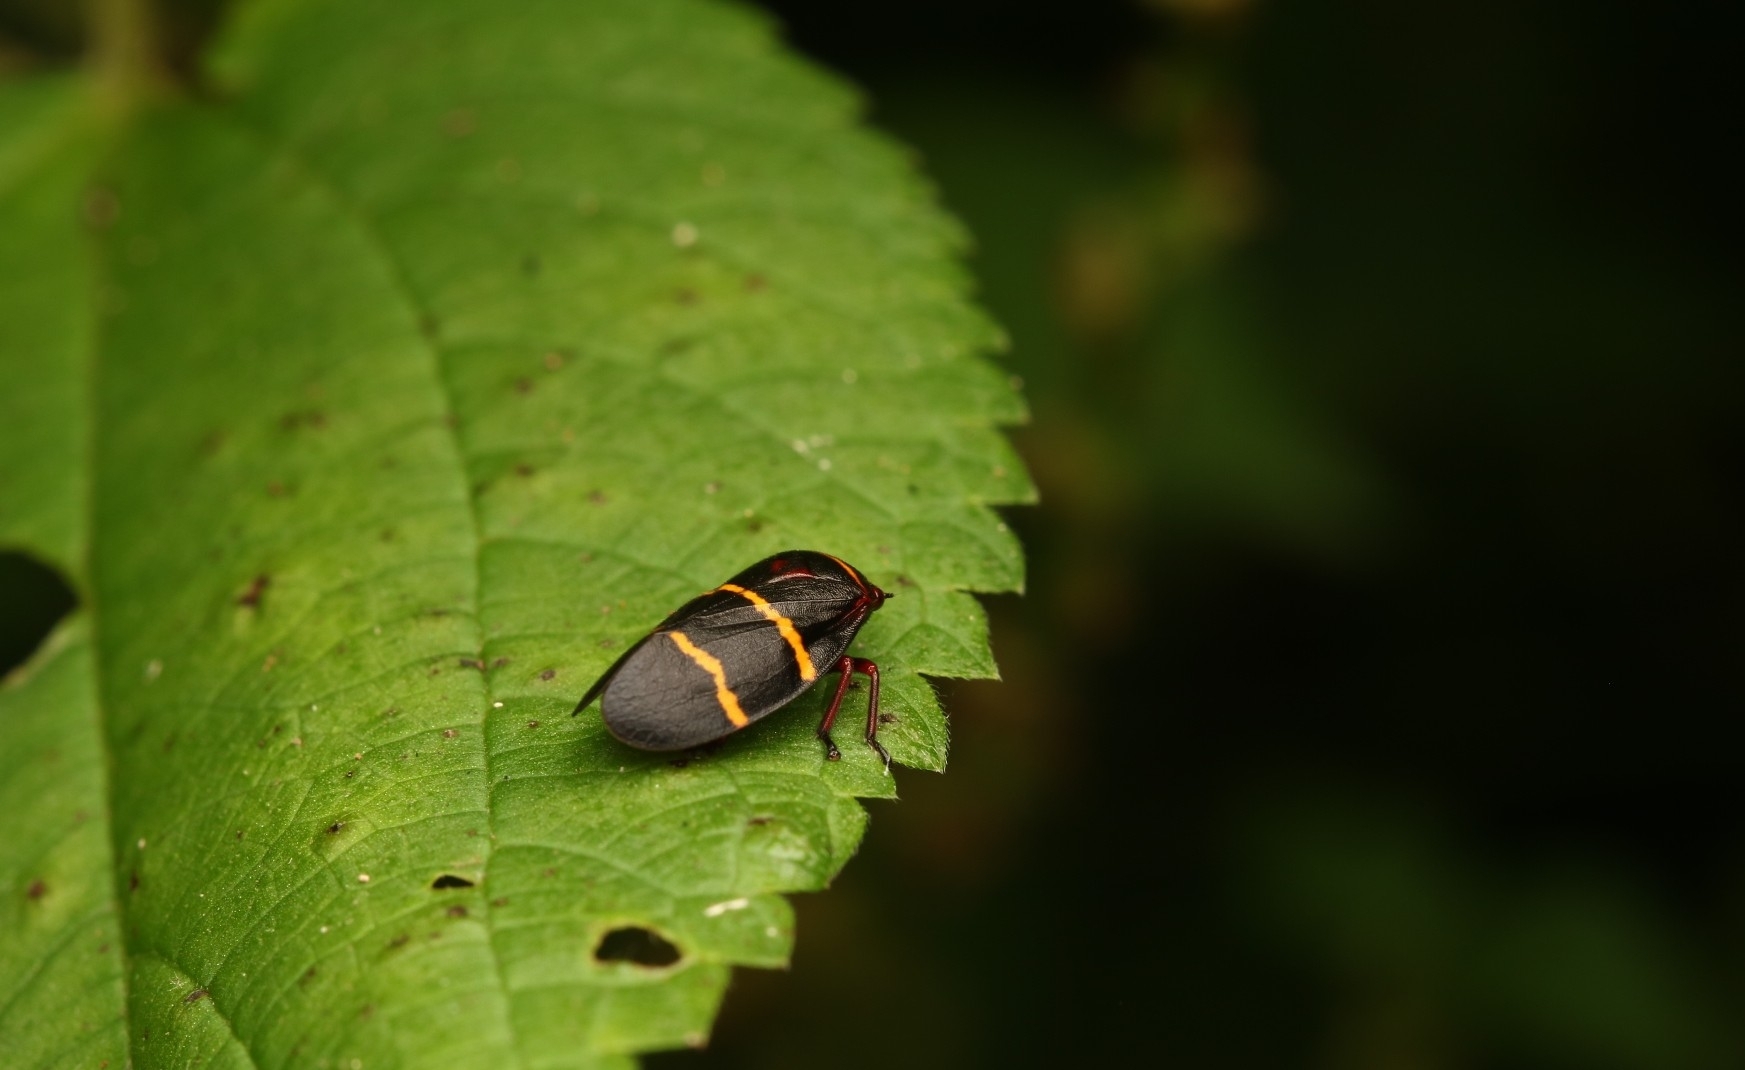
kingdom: Animalia
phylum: Arthropoda
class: Insecta
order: Hemiptera
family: Cercopidae
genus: Prosapia
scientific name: Prosapia bicincta
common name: Twolined spittlebug
